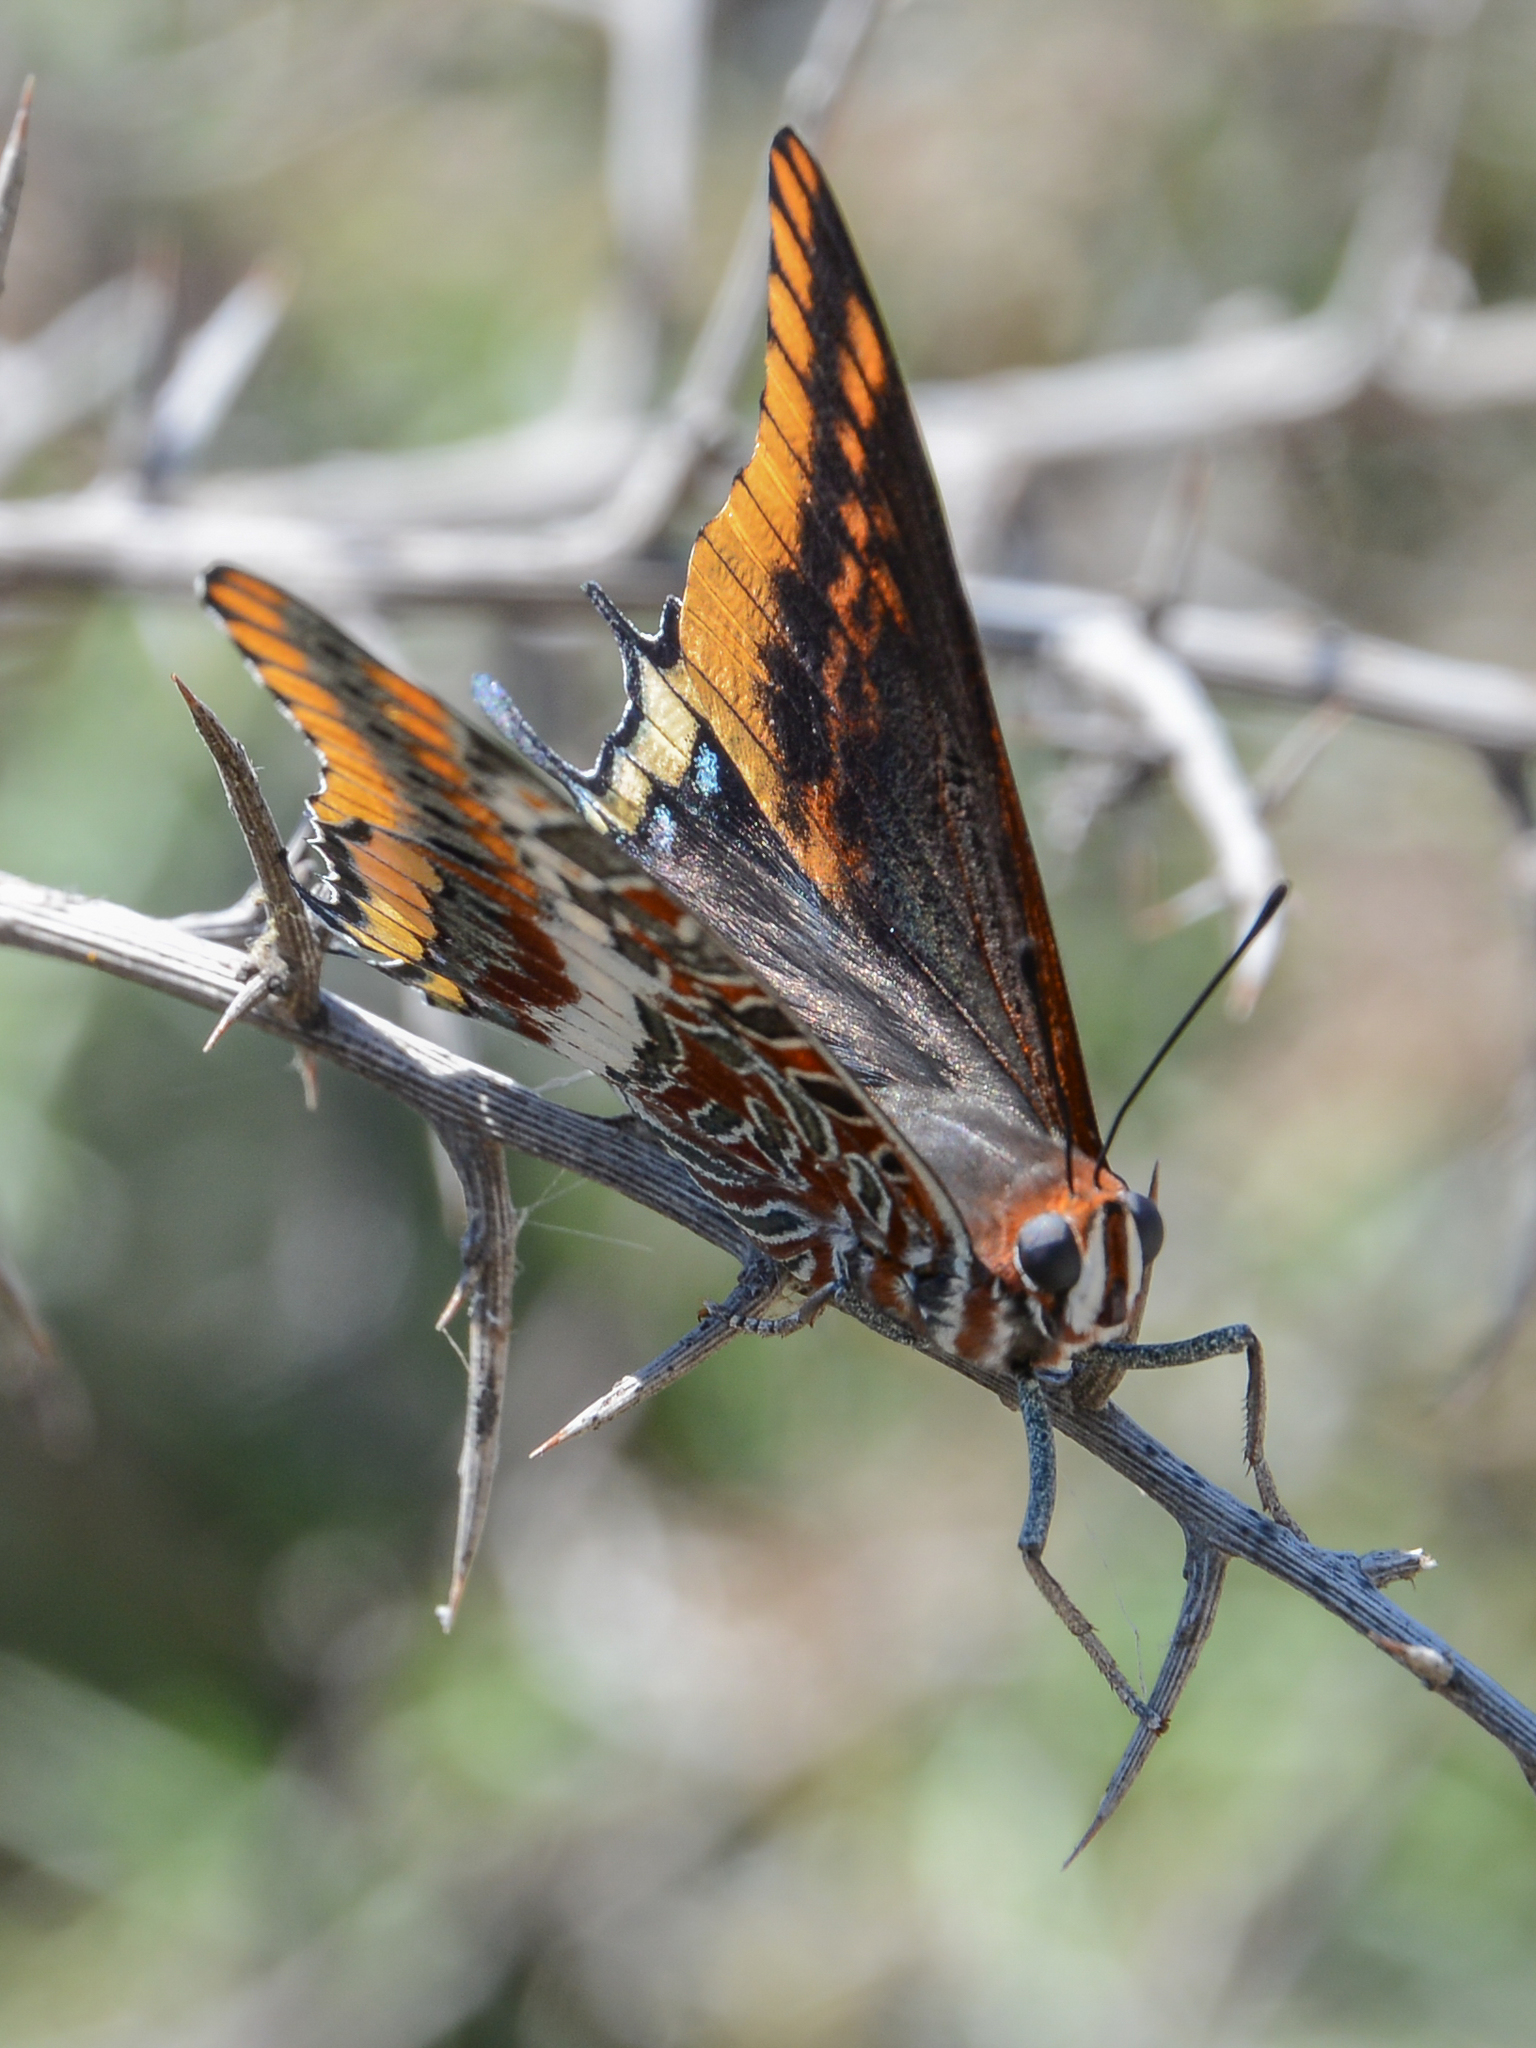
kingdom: Animalia
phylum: Arthropoda
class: Insecta
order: Lepidoptera
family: Nymphalidae
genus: Charaxes
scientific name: Charaxes jasius
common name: Two tailed pasha
